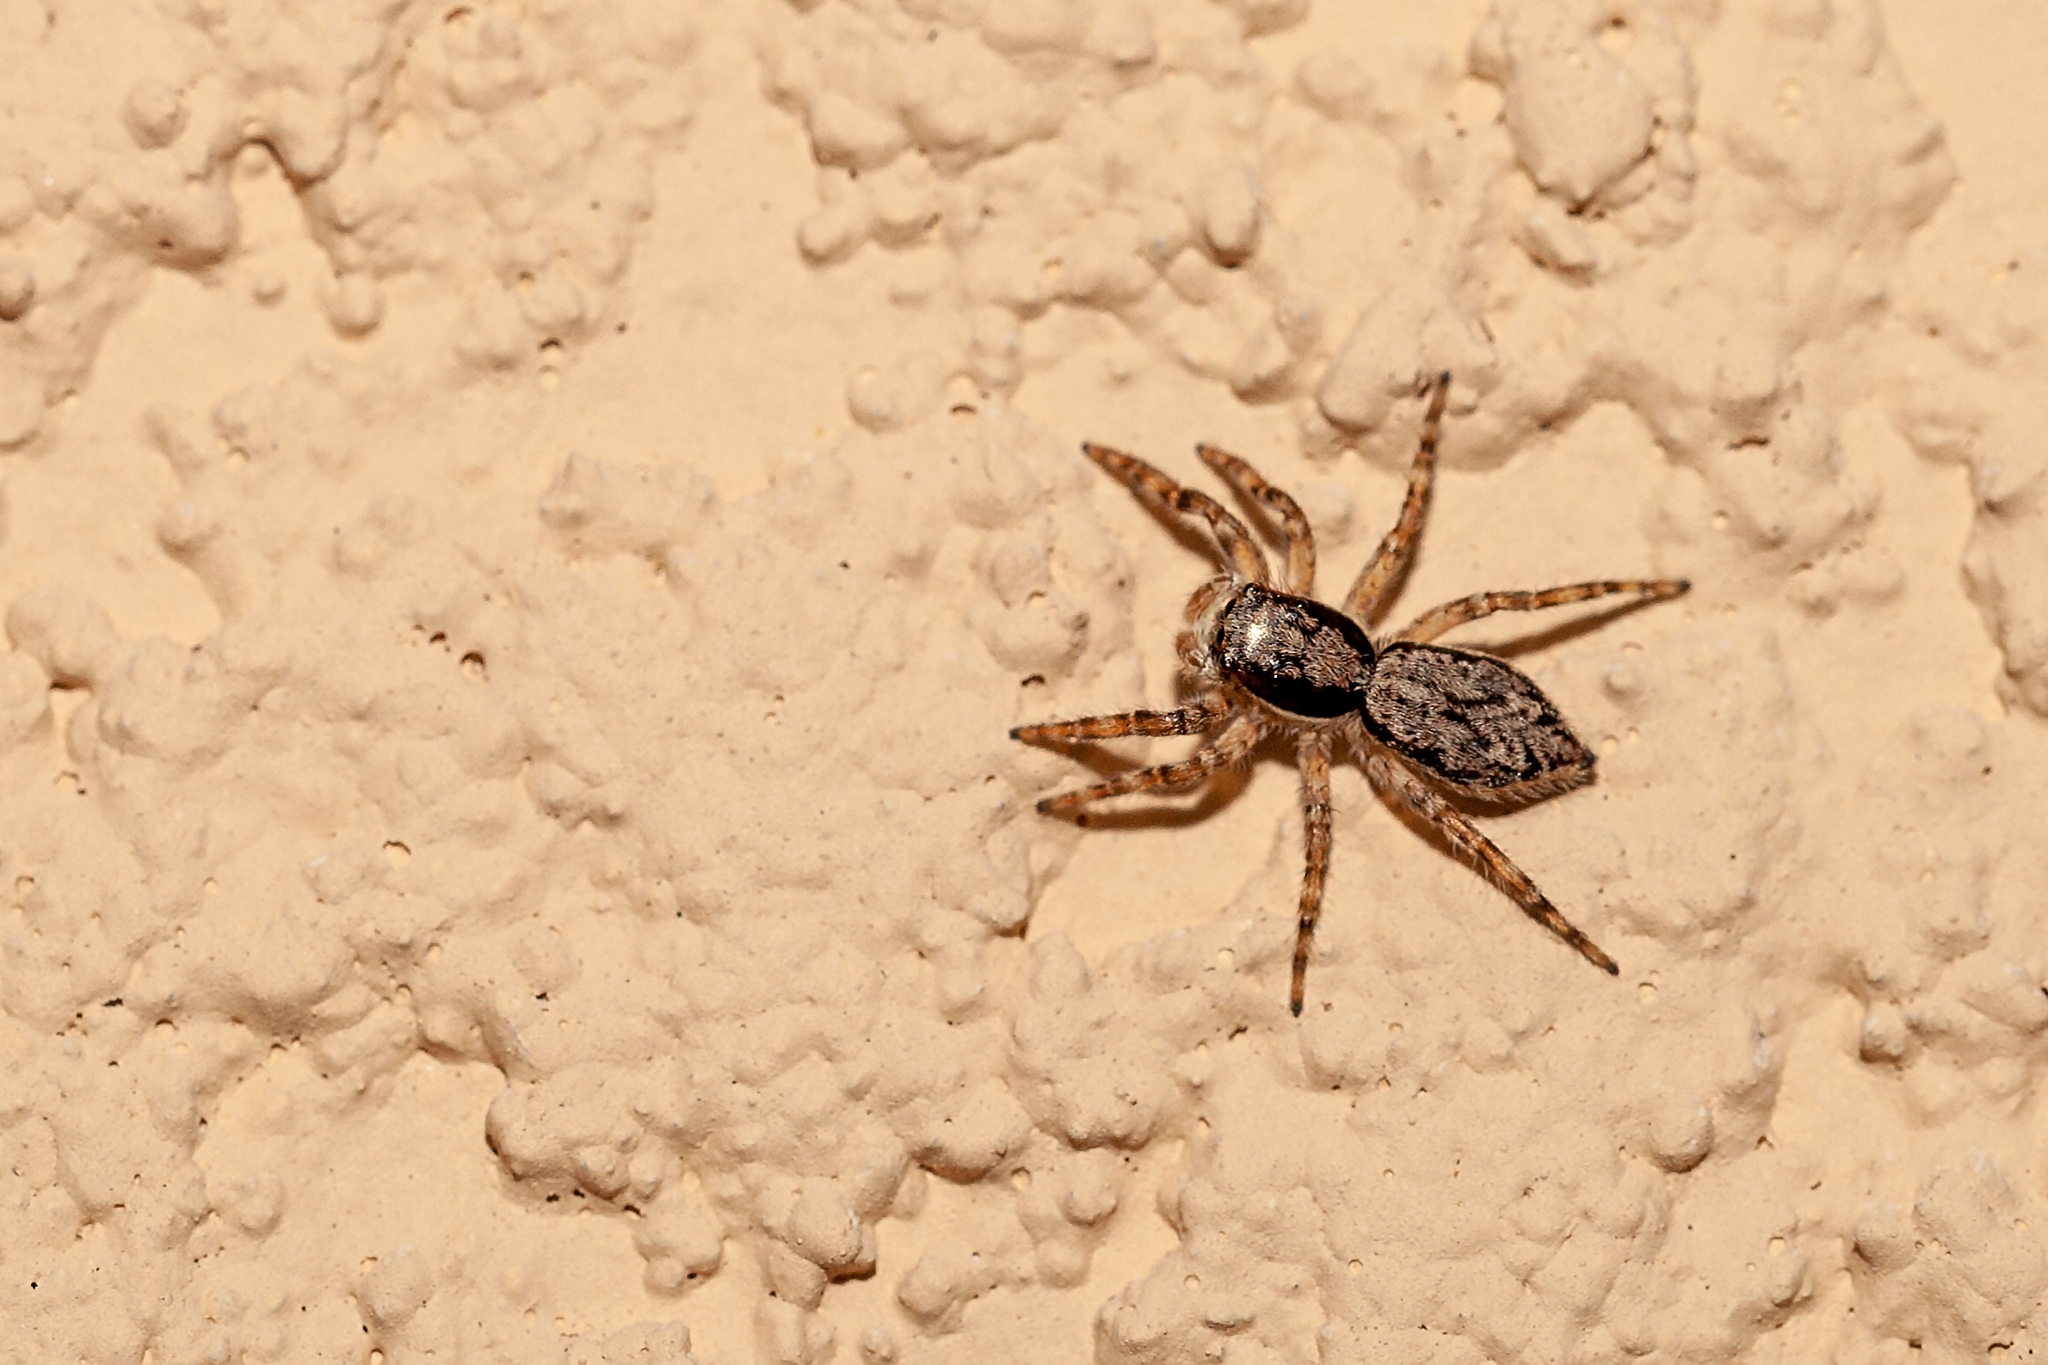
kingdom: Animalia
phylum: Arthropoda
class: Arachnida
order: Araneae
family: Salticidae
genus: Menemerus
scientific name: Menemerus bivittatus
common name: Gray wall jumper
